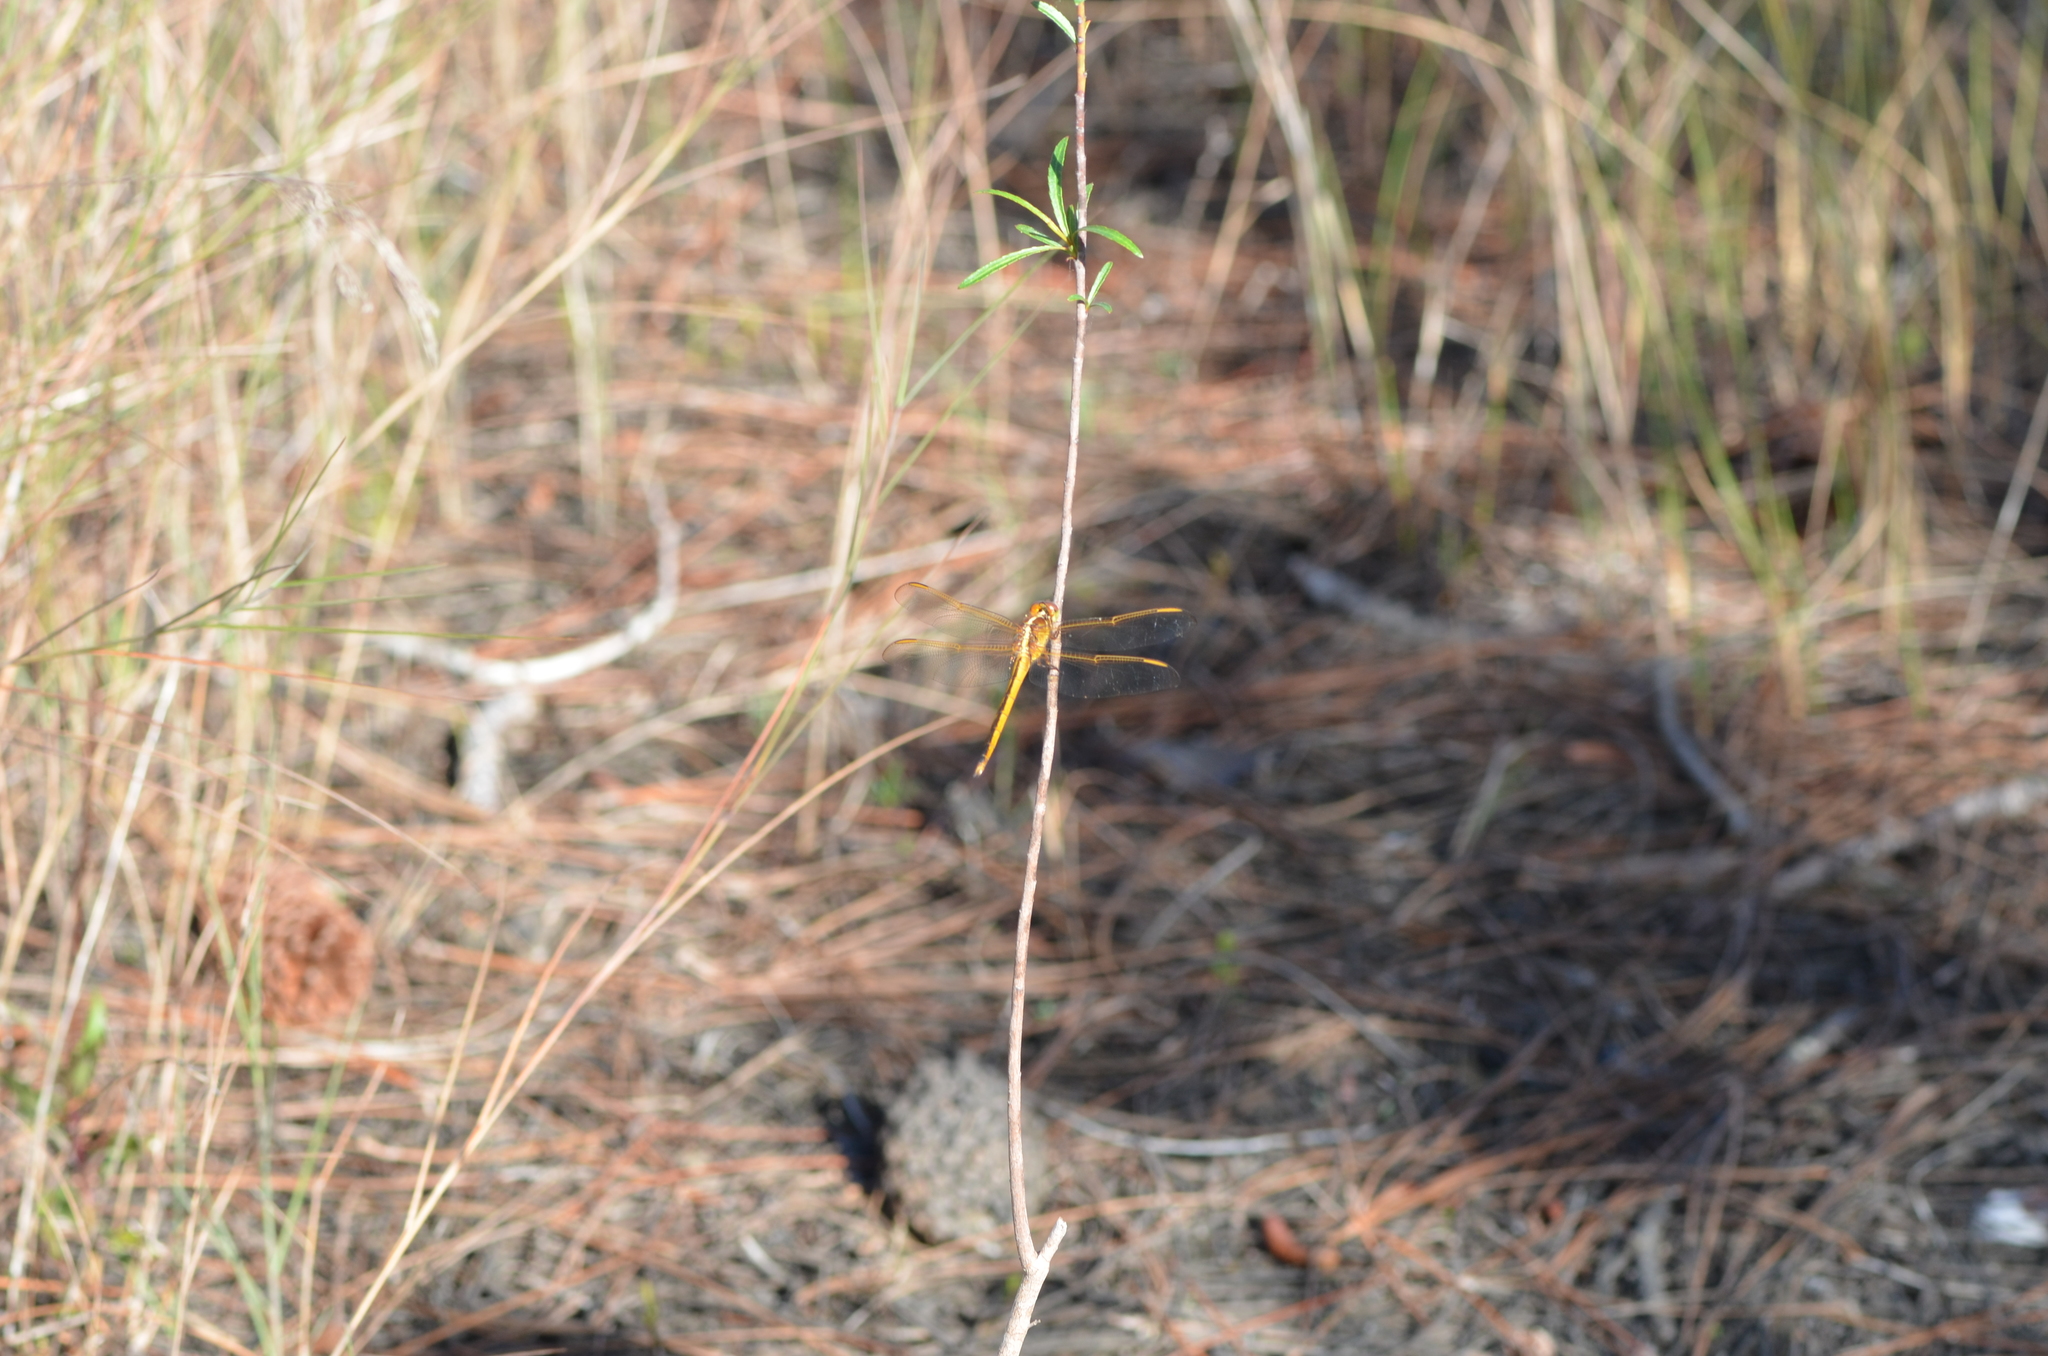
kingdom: Animalia
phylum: Arthropoda
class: Insecta
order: Odonata
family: Libellulidae
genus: Libellula
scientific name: Libellula needhami
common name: Needham's skimmer
